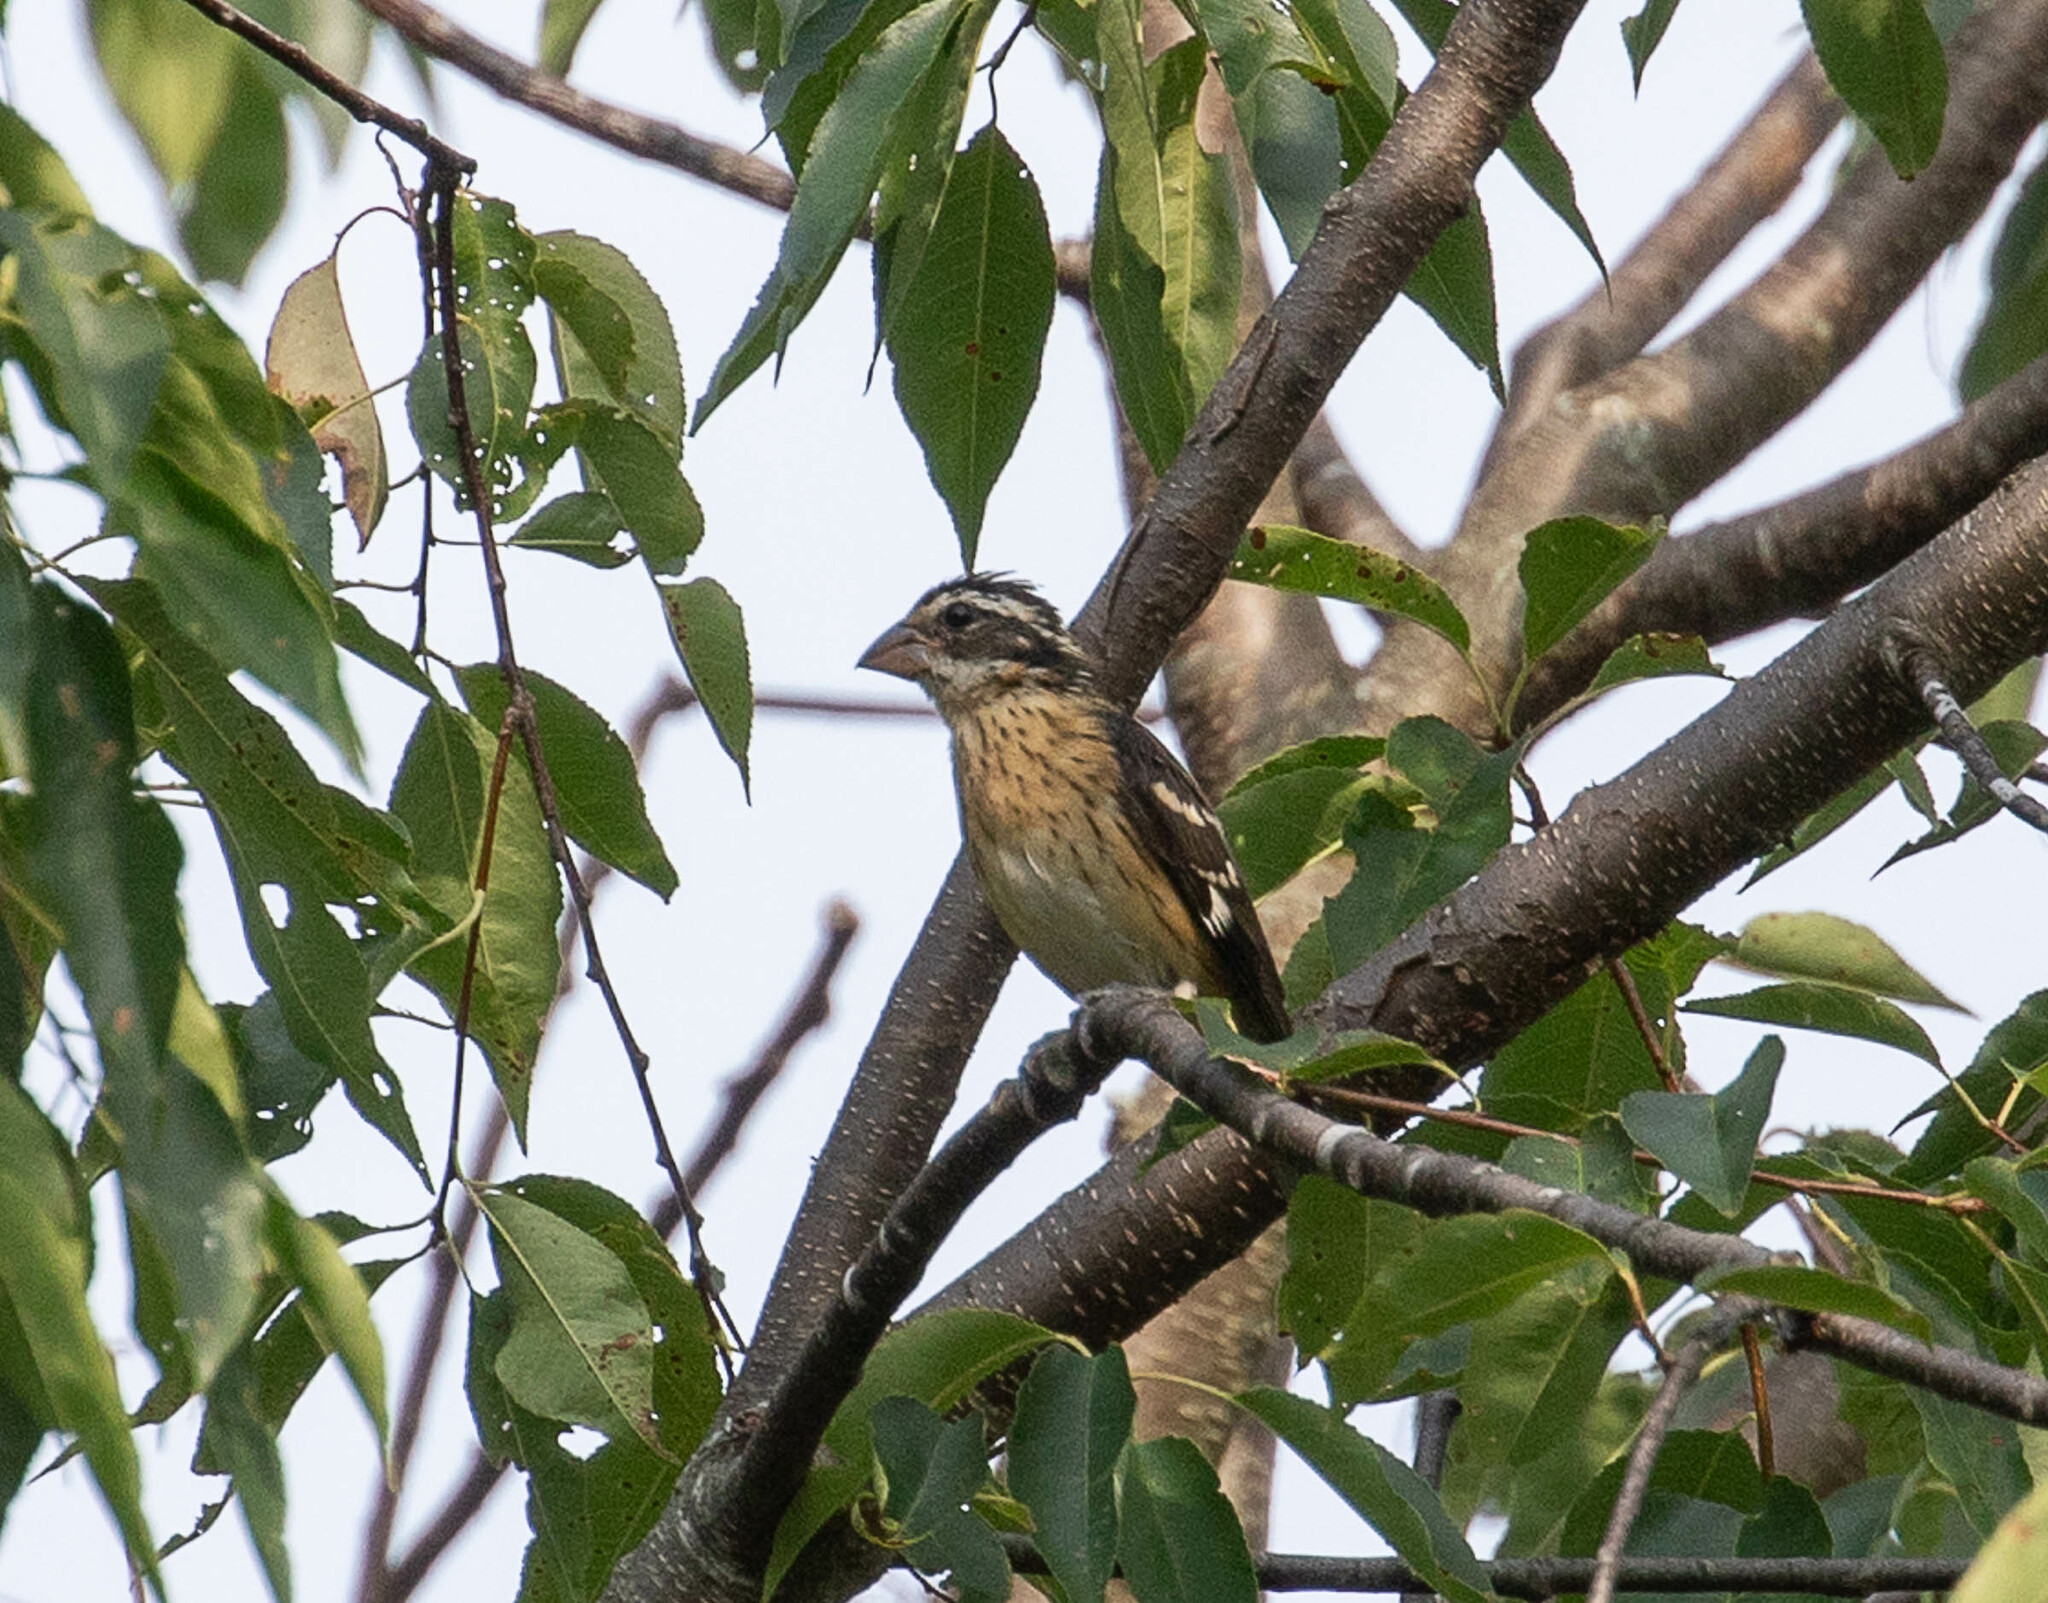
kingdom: Animalia
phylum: Chordata
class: Aves
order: Passeriformes
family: Cardinalidae
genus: Pheucticus
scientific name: Pheucticus ludovicianus
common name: Rose-breasted grosbeak
